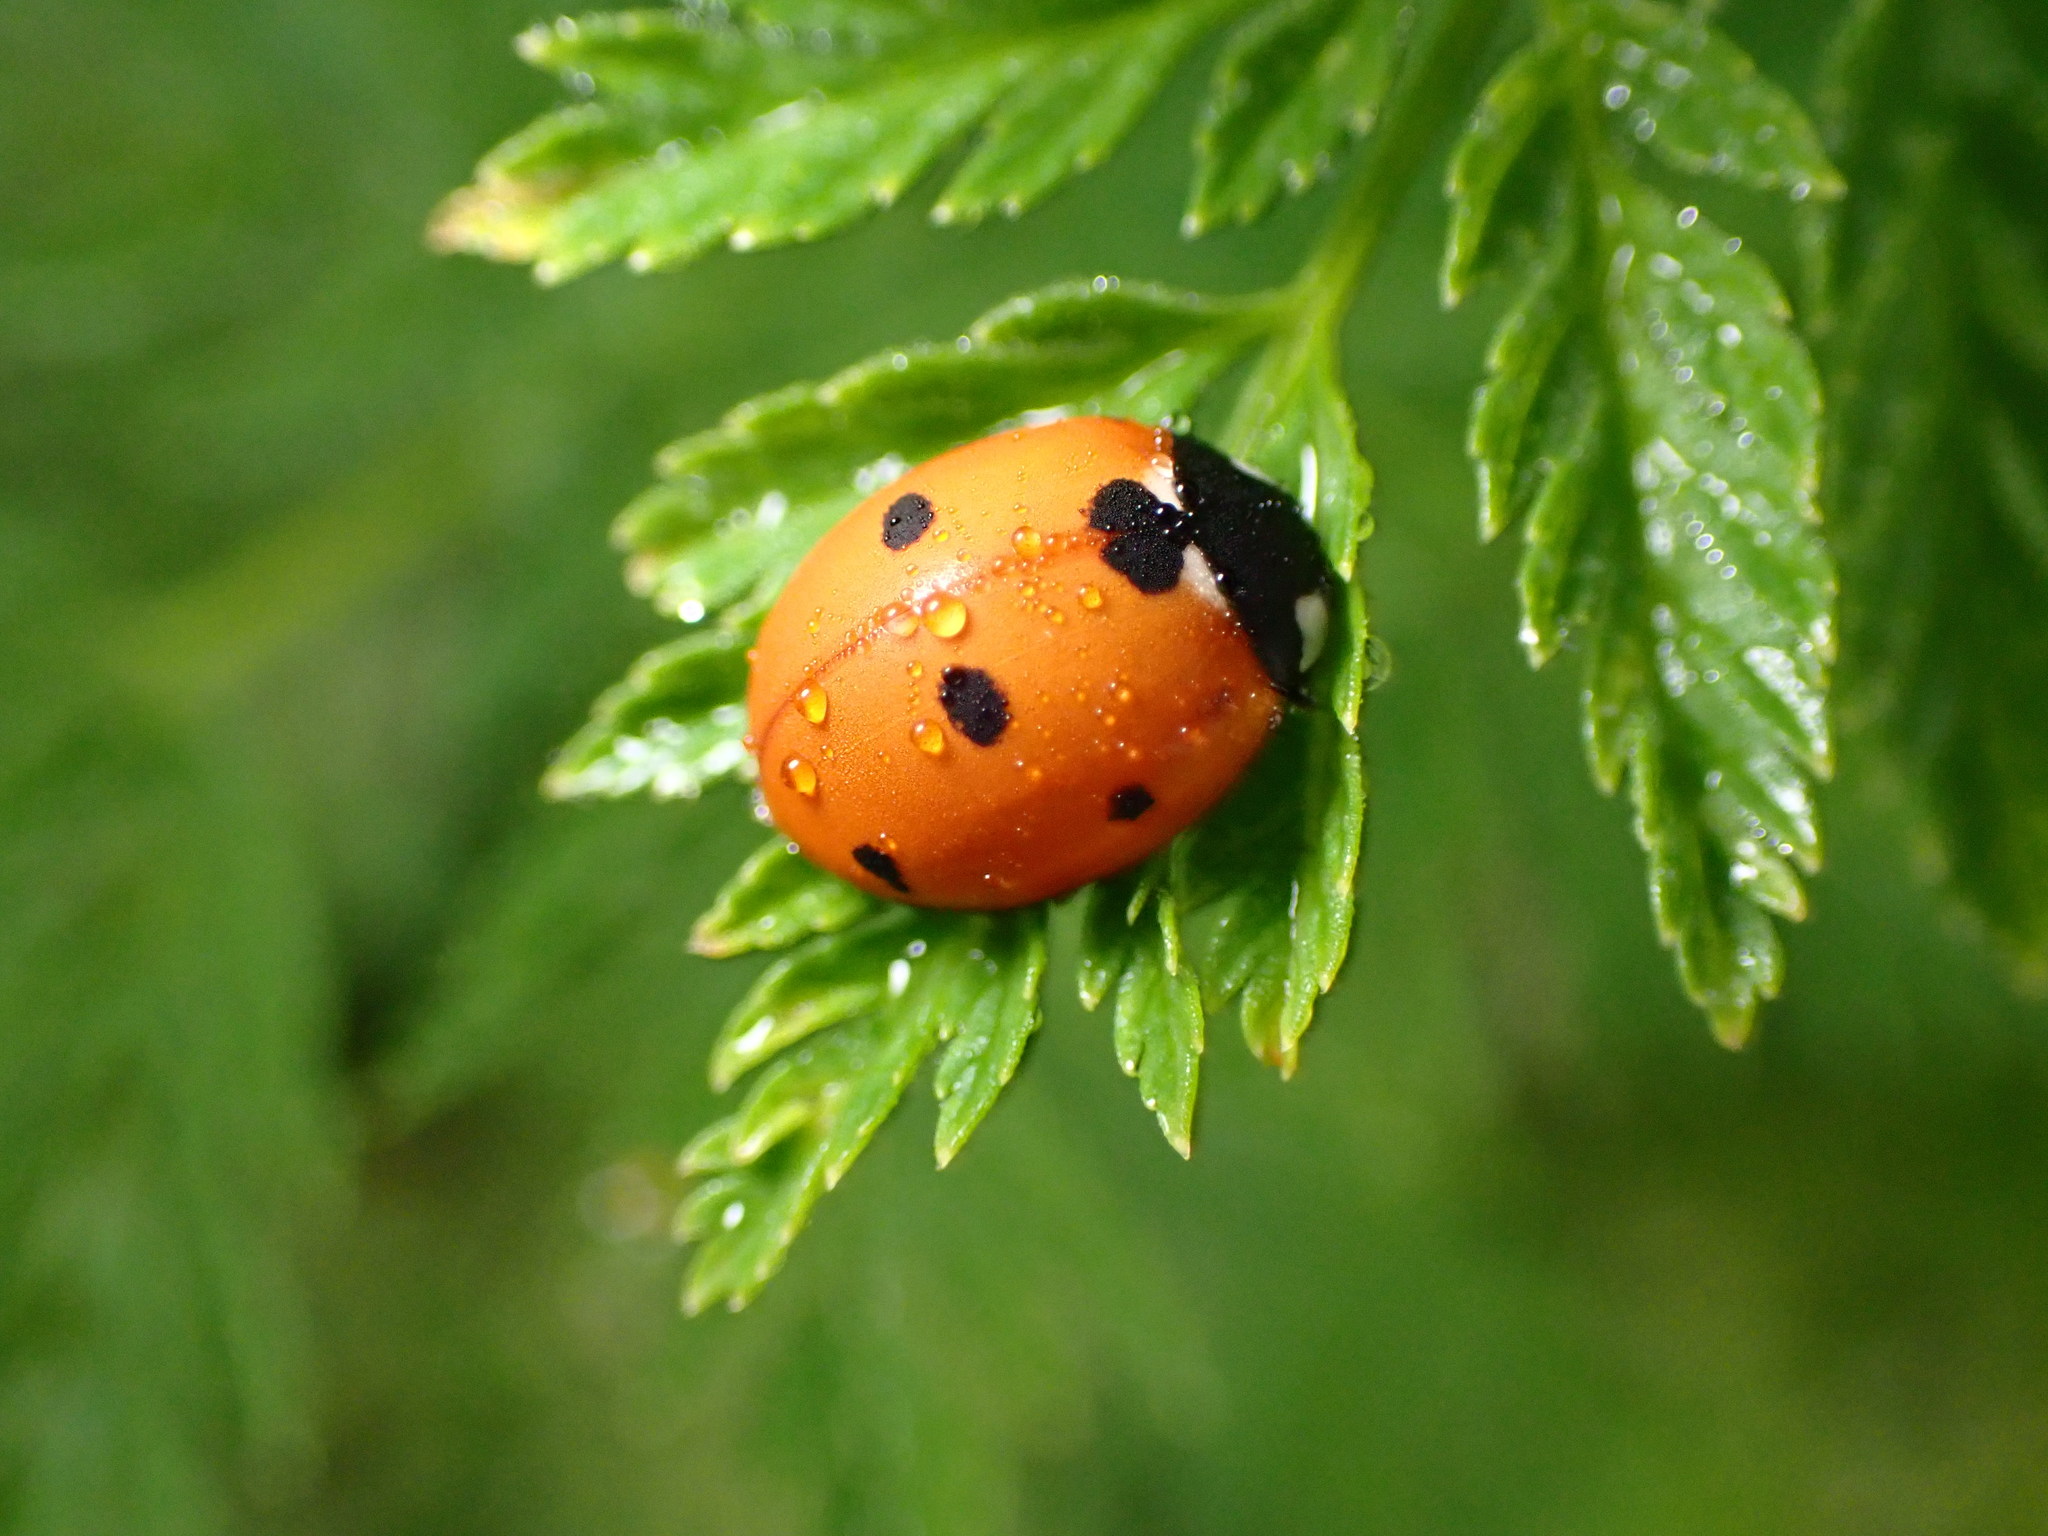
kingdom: Animalia
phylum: Arthropoda
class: Insecta
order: Coleoptera
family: Coccinellidae
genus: Coccinella
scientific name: Coccinella septempunctata
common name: Sevenspotted lady beetle
